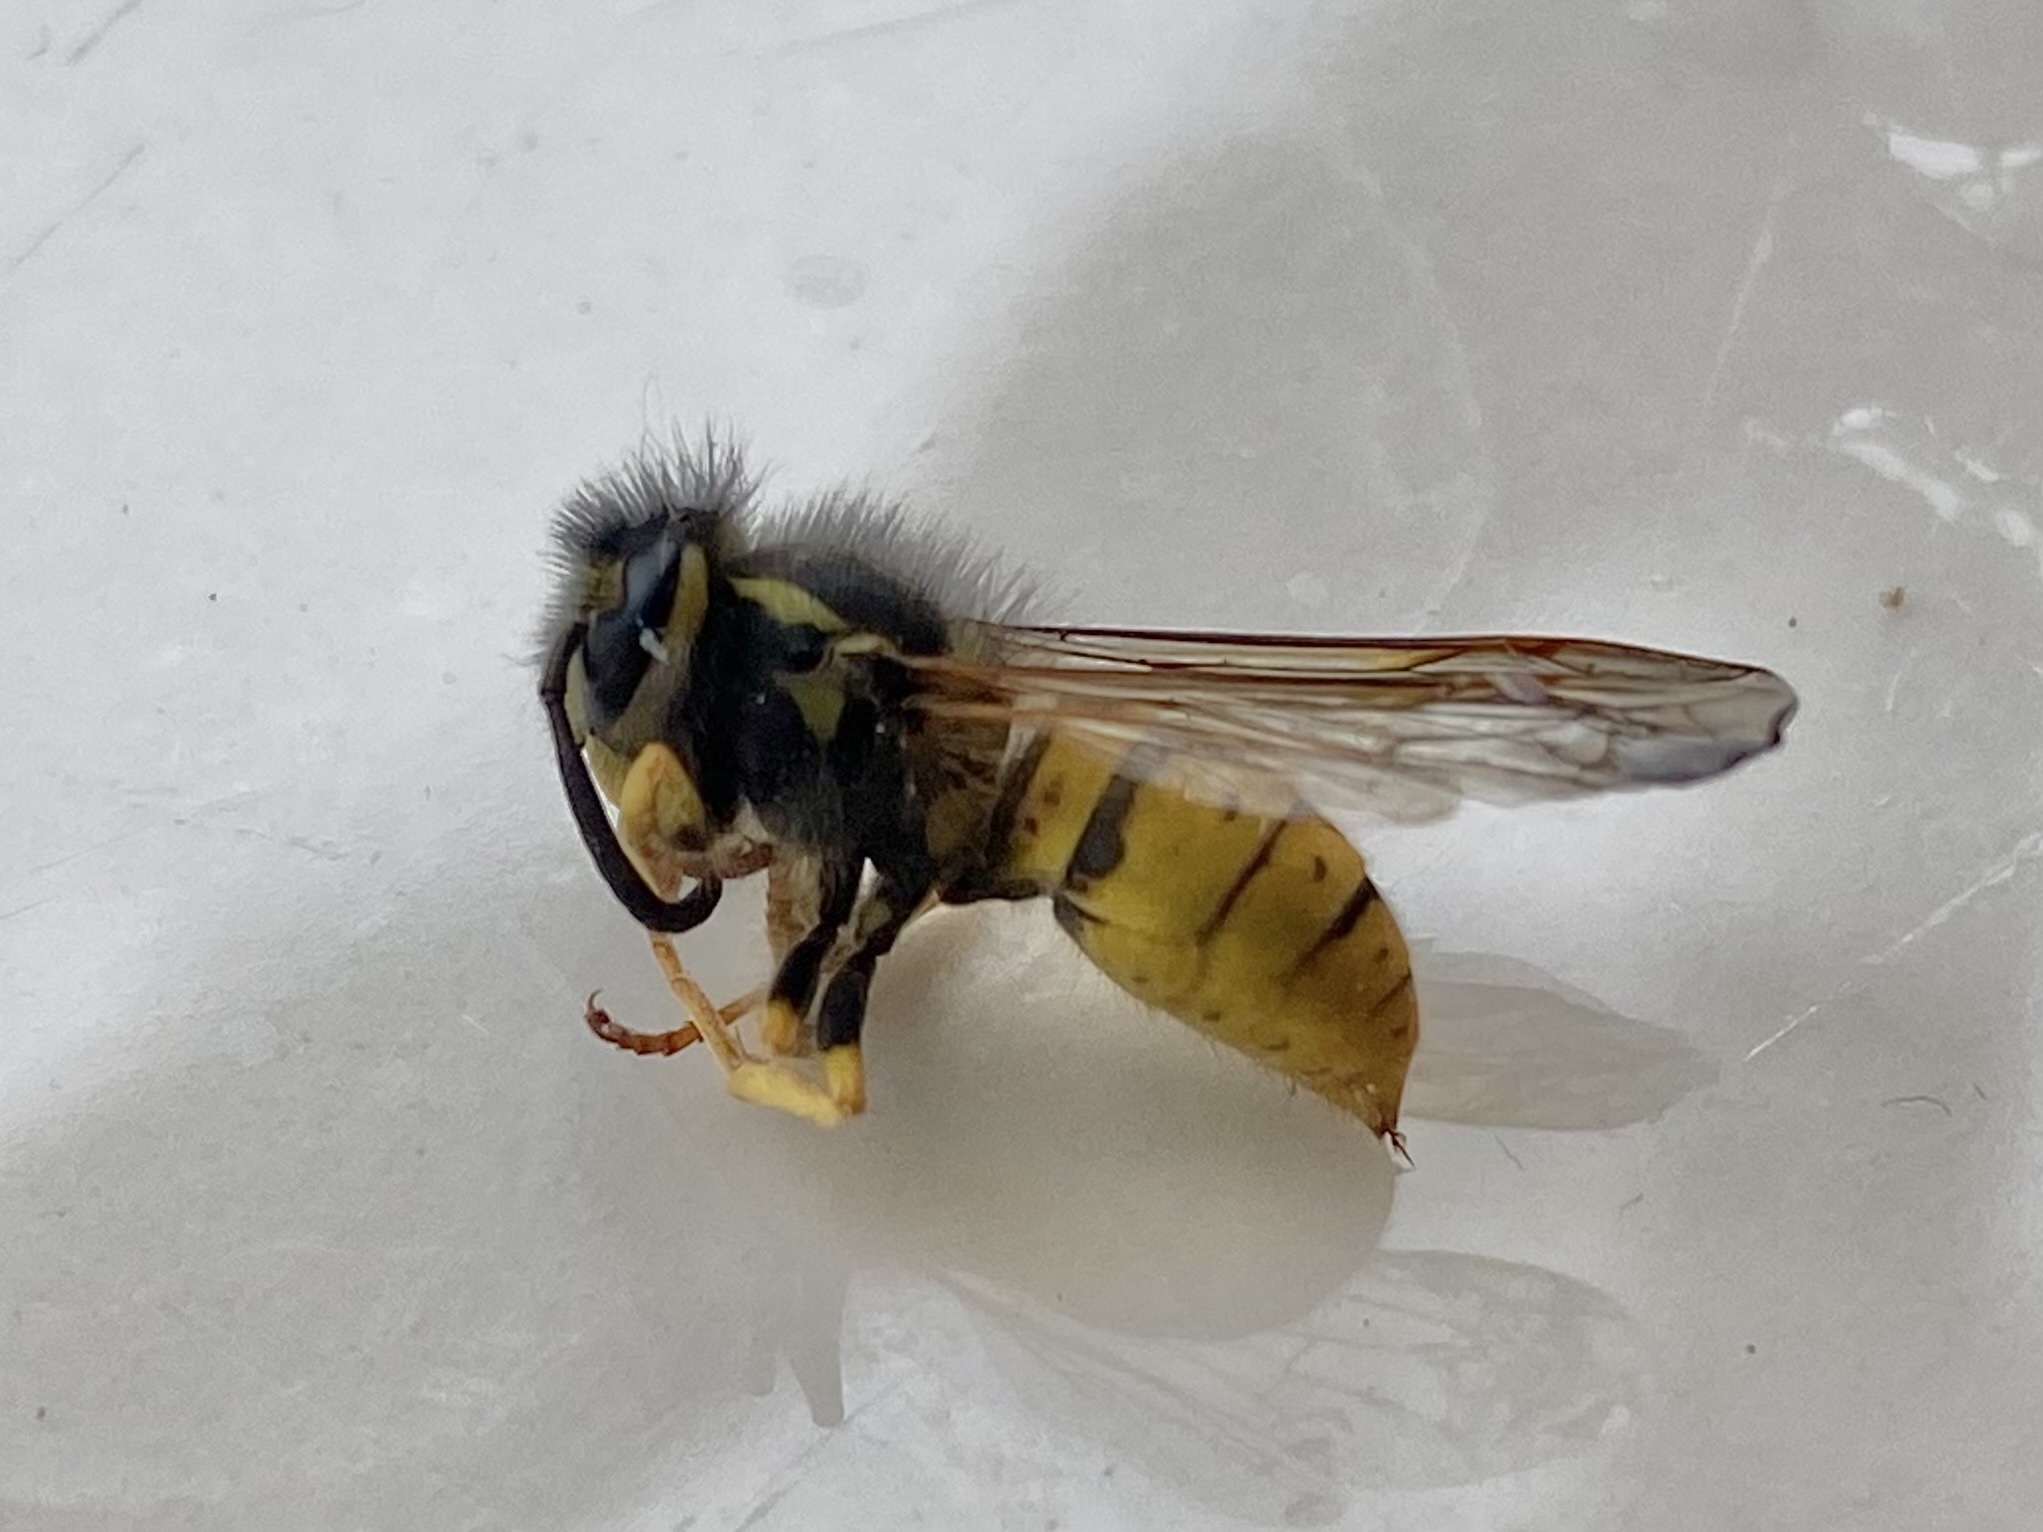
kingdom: Animalia
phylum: Arthropoda
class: Insecta
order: Hymenoptera
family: Vespidae
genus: Vespula
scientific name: Vespula germanica
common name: German wasp
